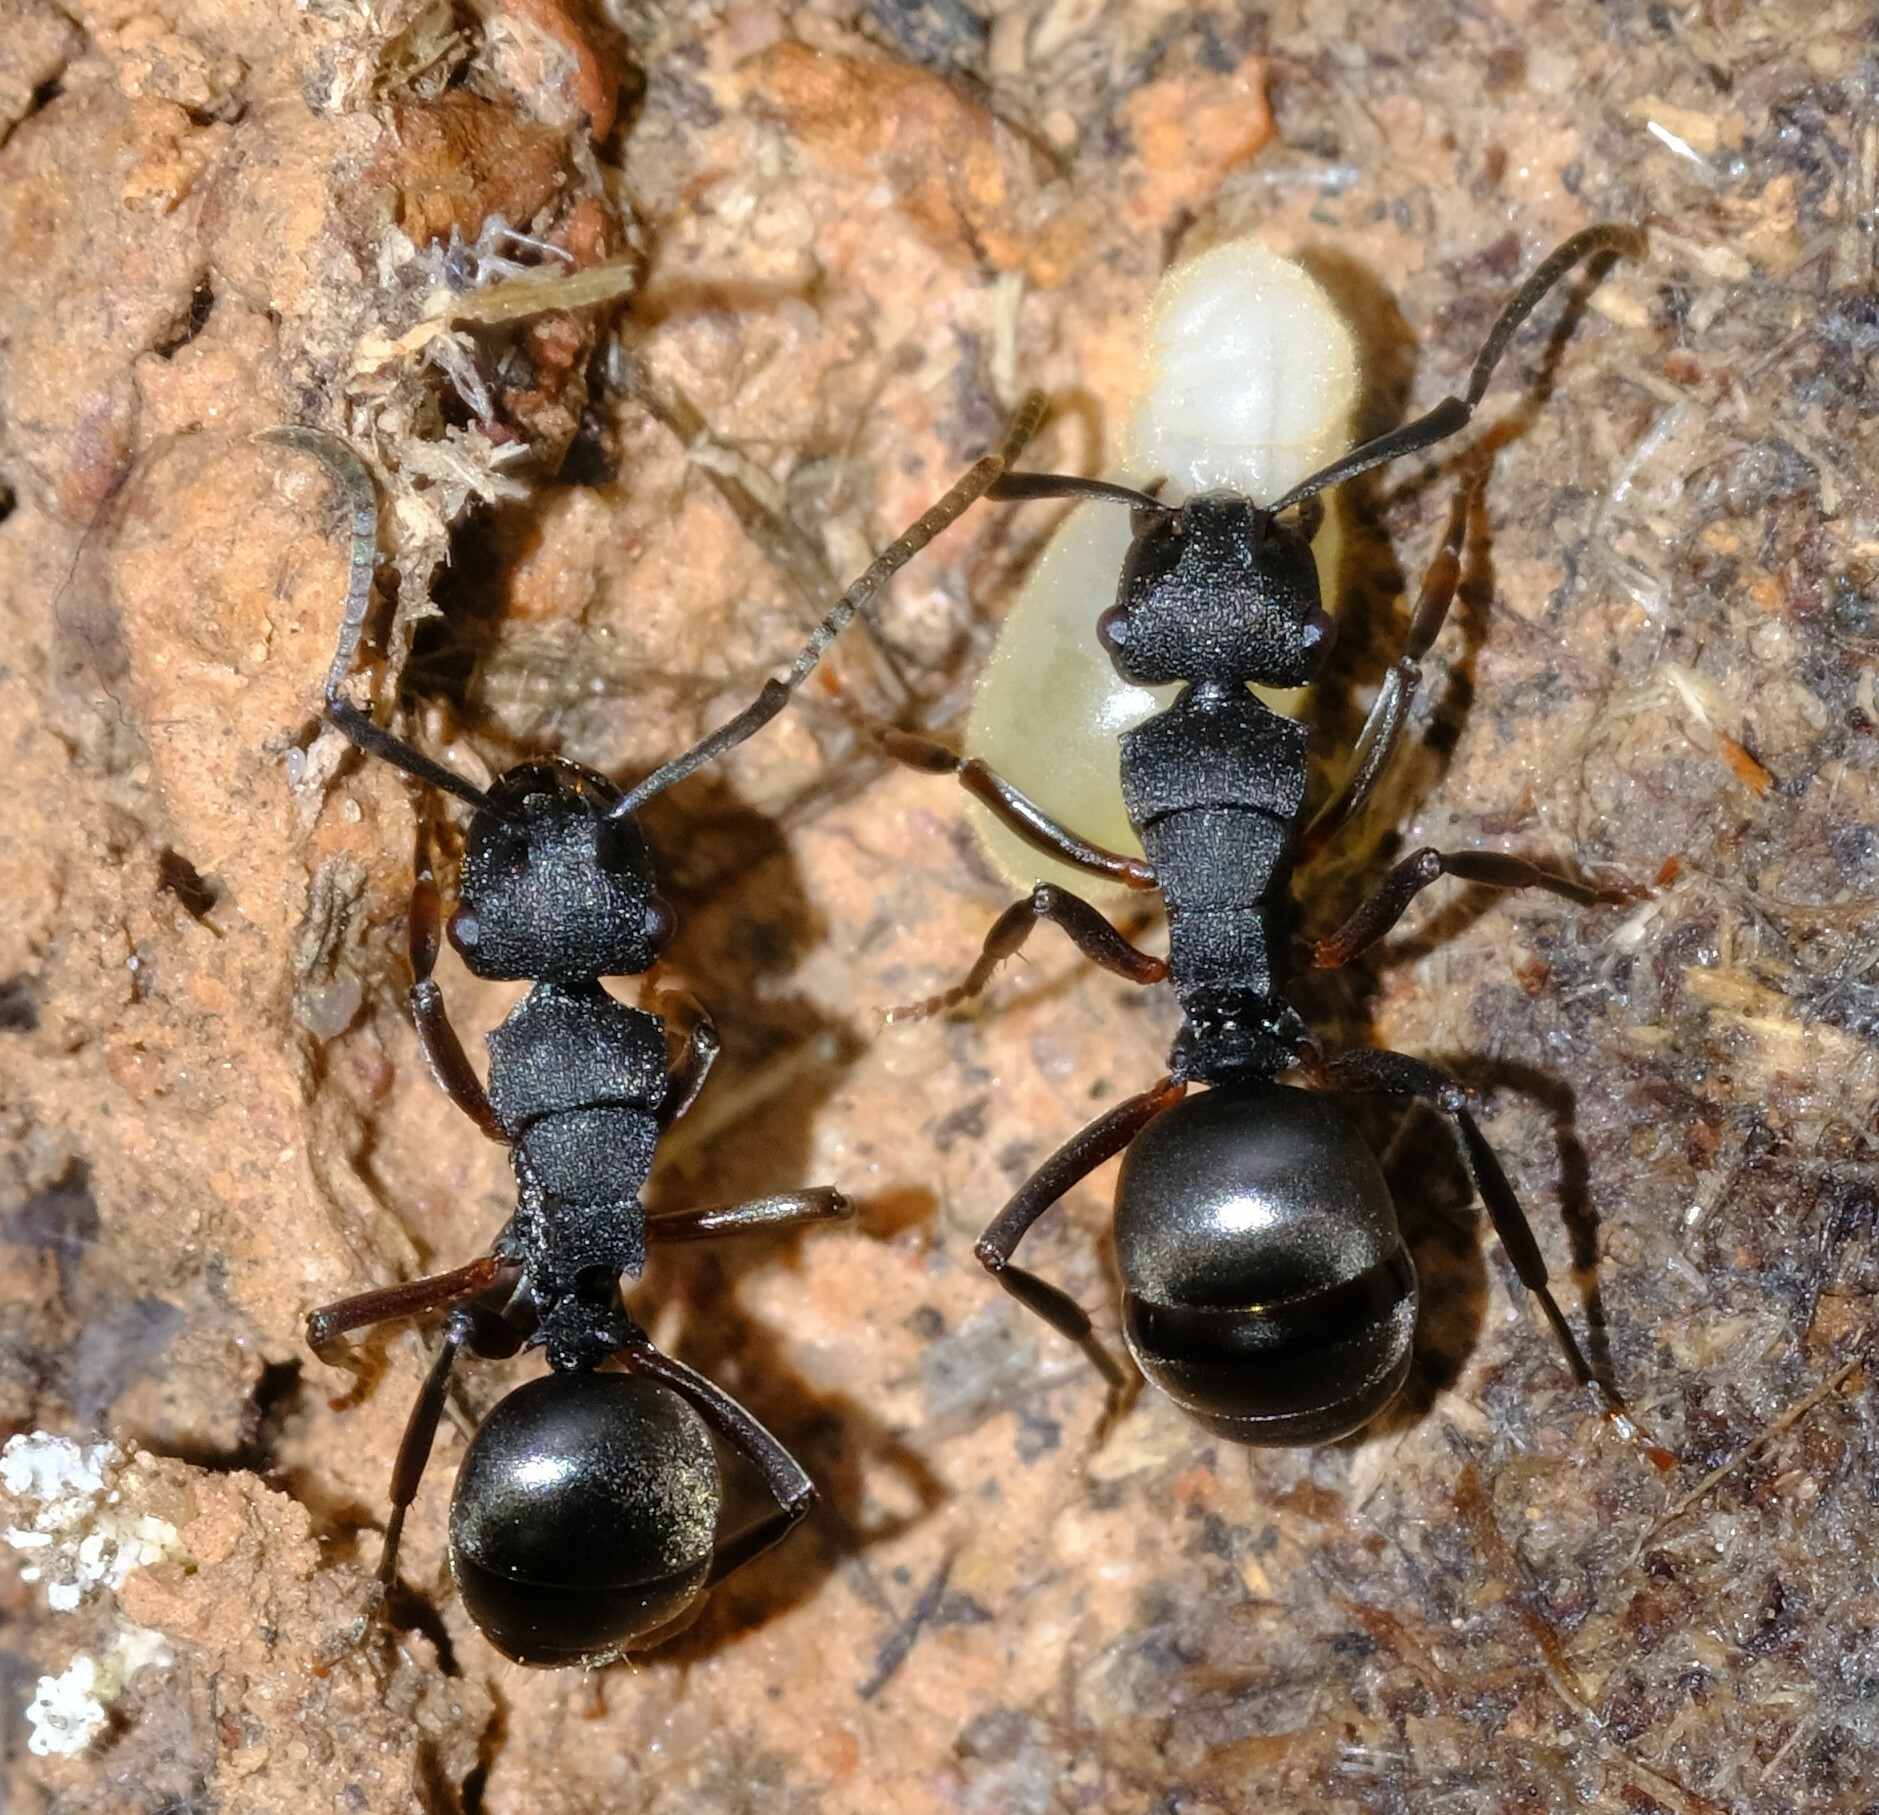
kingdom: Animalia
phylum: Arthropoda
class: Insecta
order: Hymenoptera
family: Formicidae
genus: Polyrhachis
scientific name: Polyrhachis phryne
